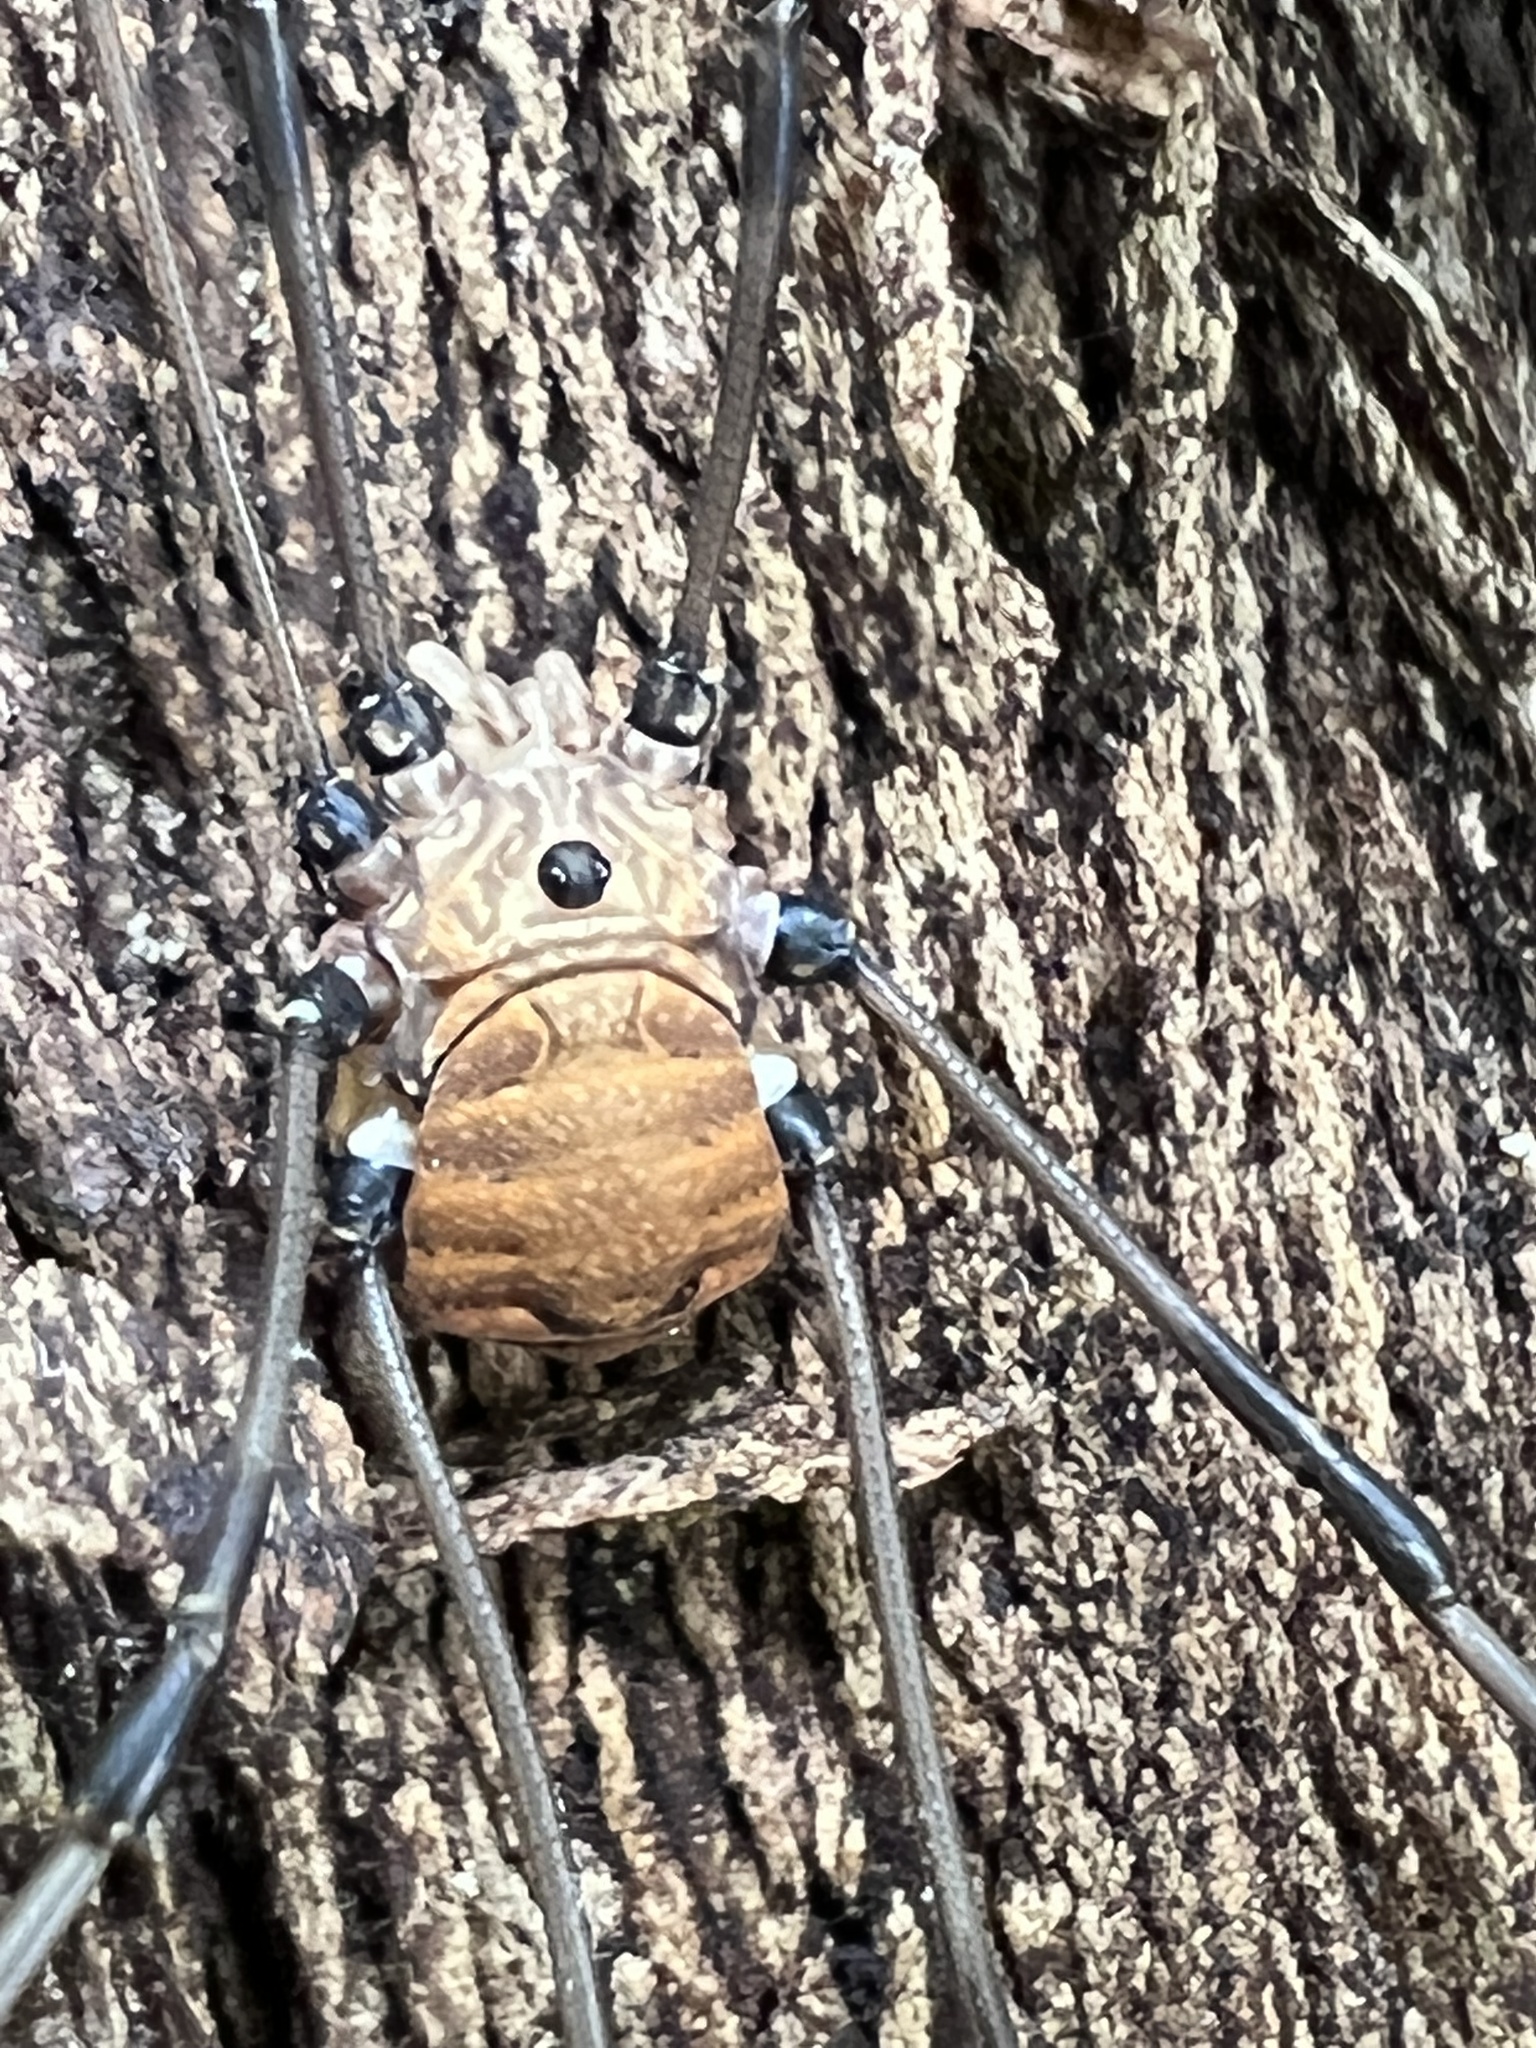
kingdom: Animalia
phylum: Arthropoda
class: Arachnida
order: Opiliones
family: Sclerosomatidae
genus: Leiobunum
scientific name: Leiobunum verrucosum
